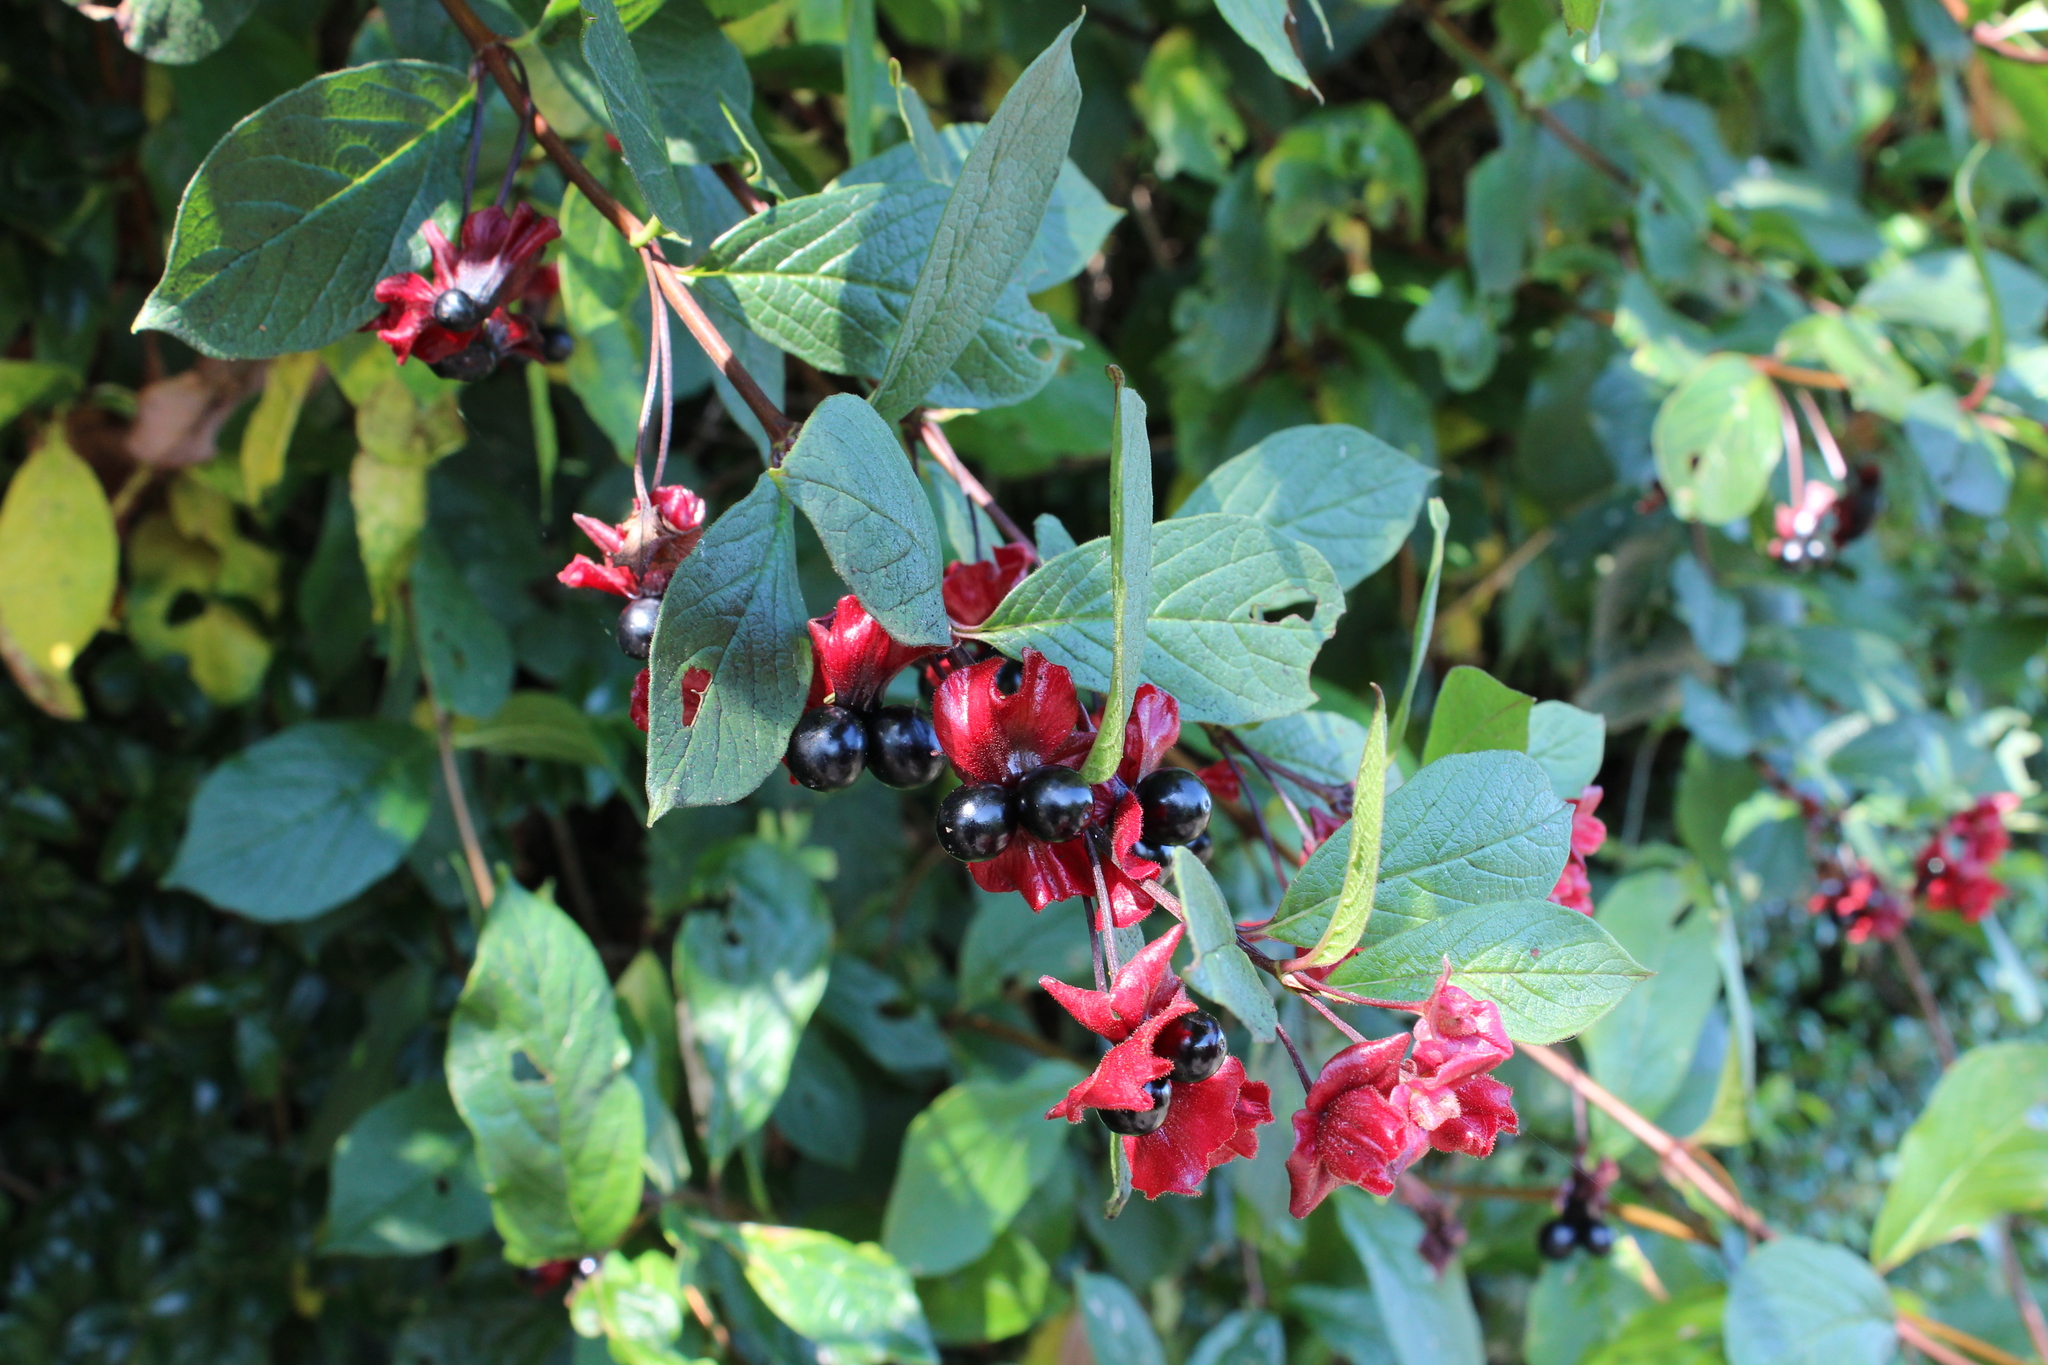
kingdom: Plantae
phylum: Tracheophyta
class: Magnoliopsida
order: Dipsacales
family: Caprifoliaceae
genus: Lonicera
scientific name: Lonicera involucrata
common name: Californian honeysuckle
